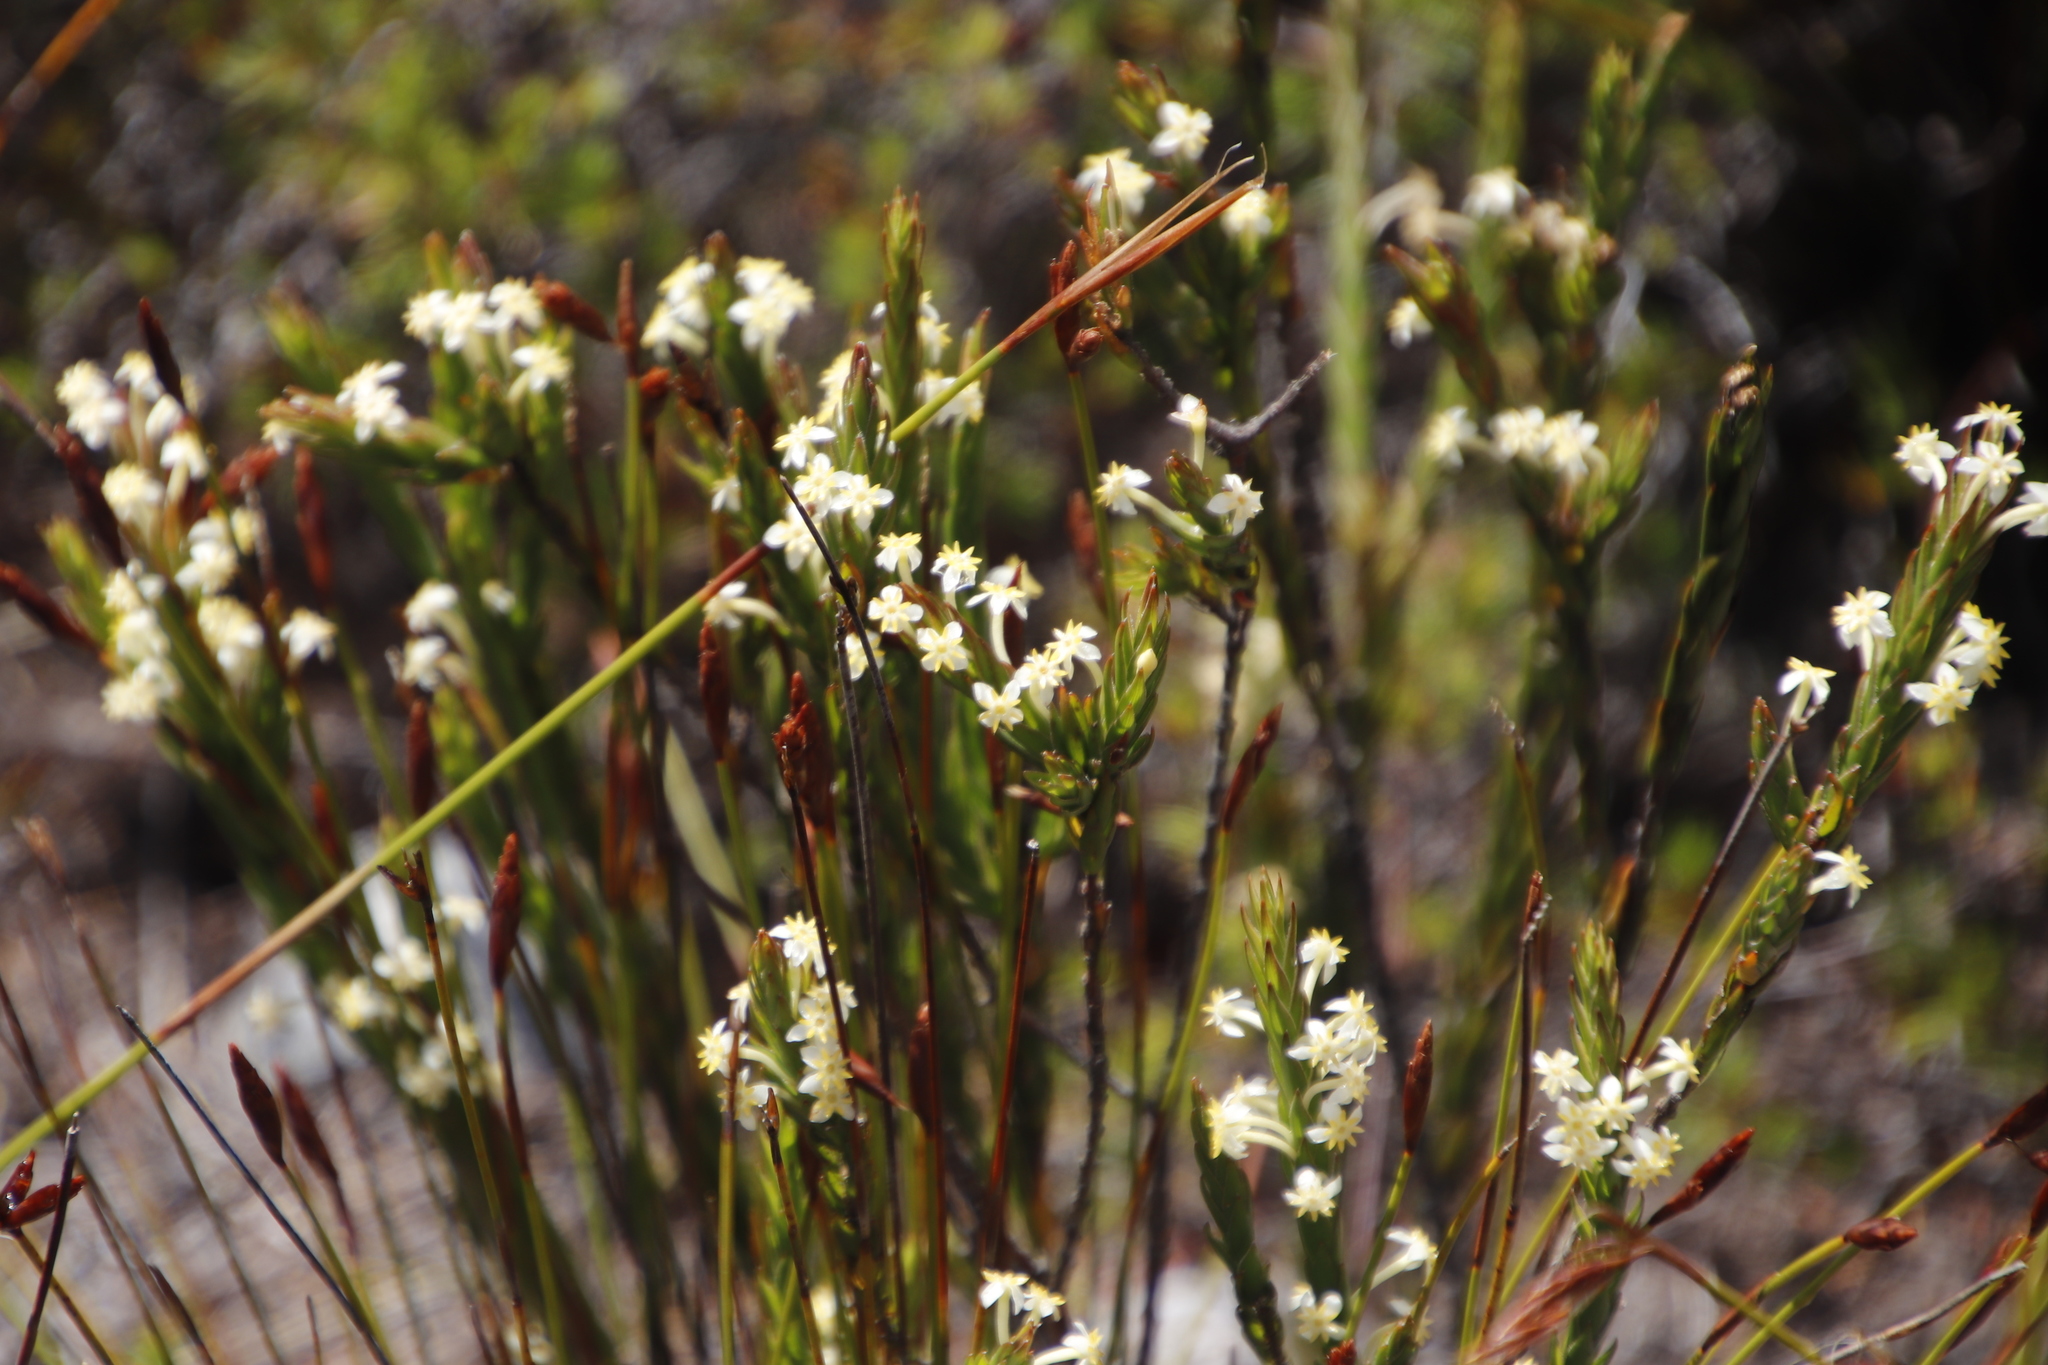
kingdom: Plantae
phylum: Tracheophyta
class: Magnoliopsida
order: Malvales
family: Thymelaeaceae
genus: Struthiola
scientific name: Struthiola ciliata
